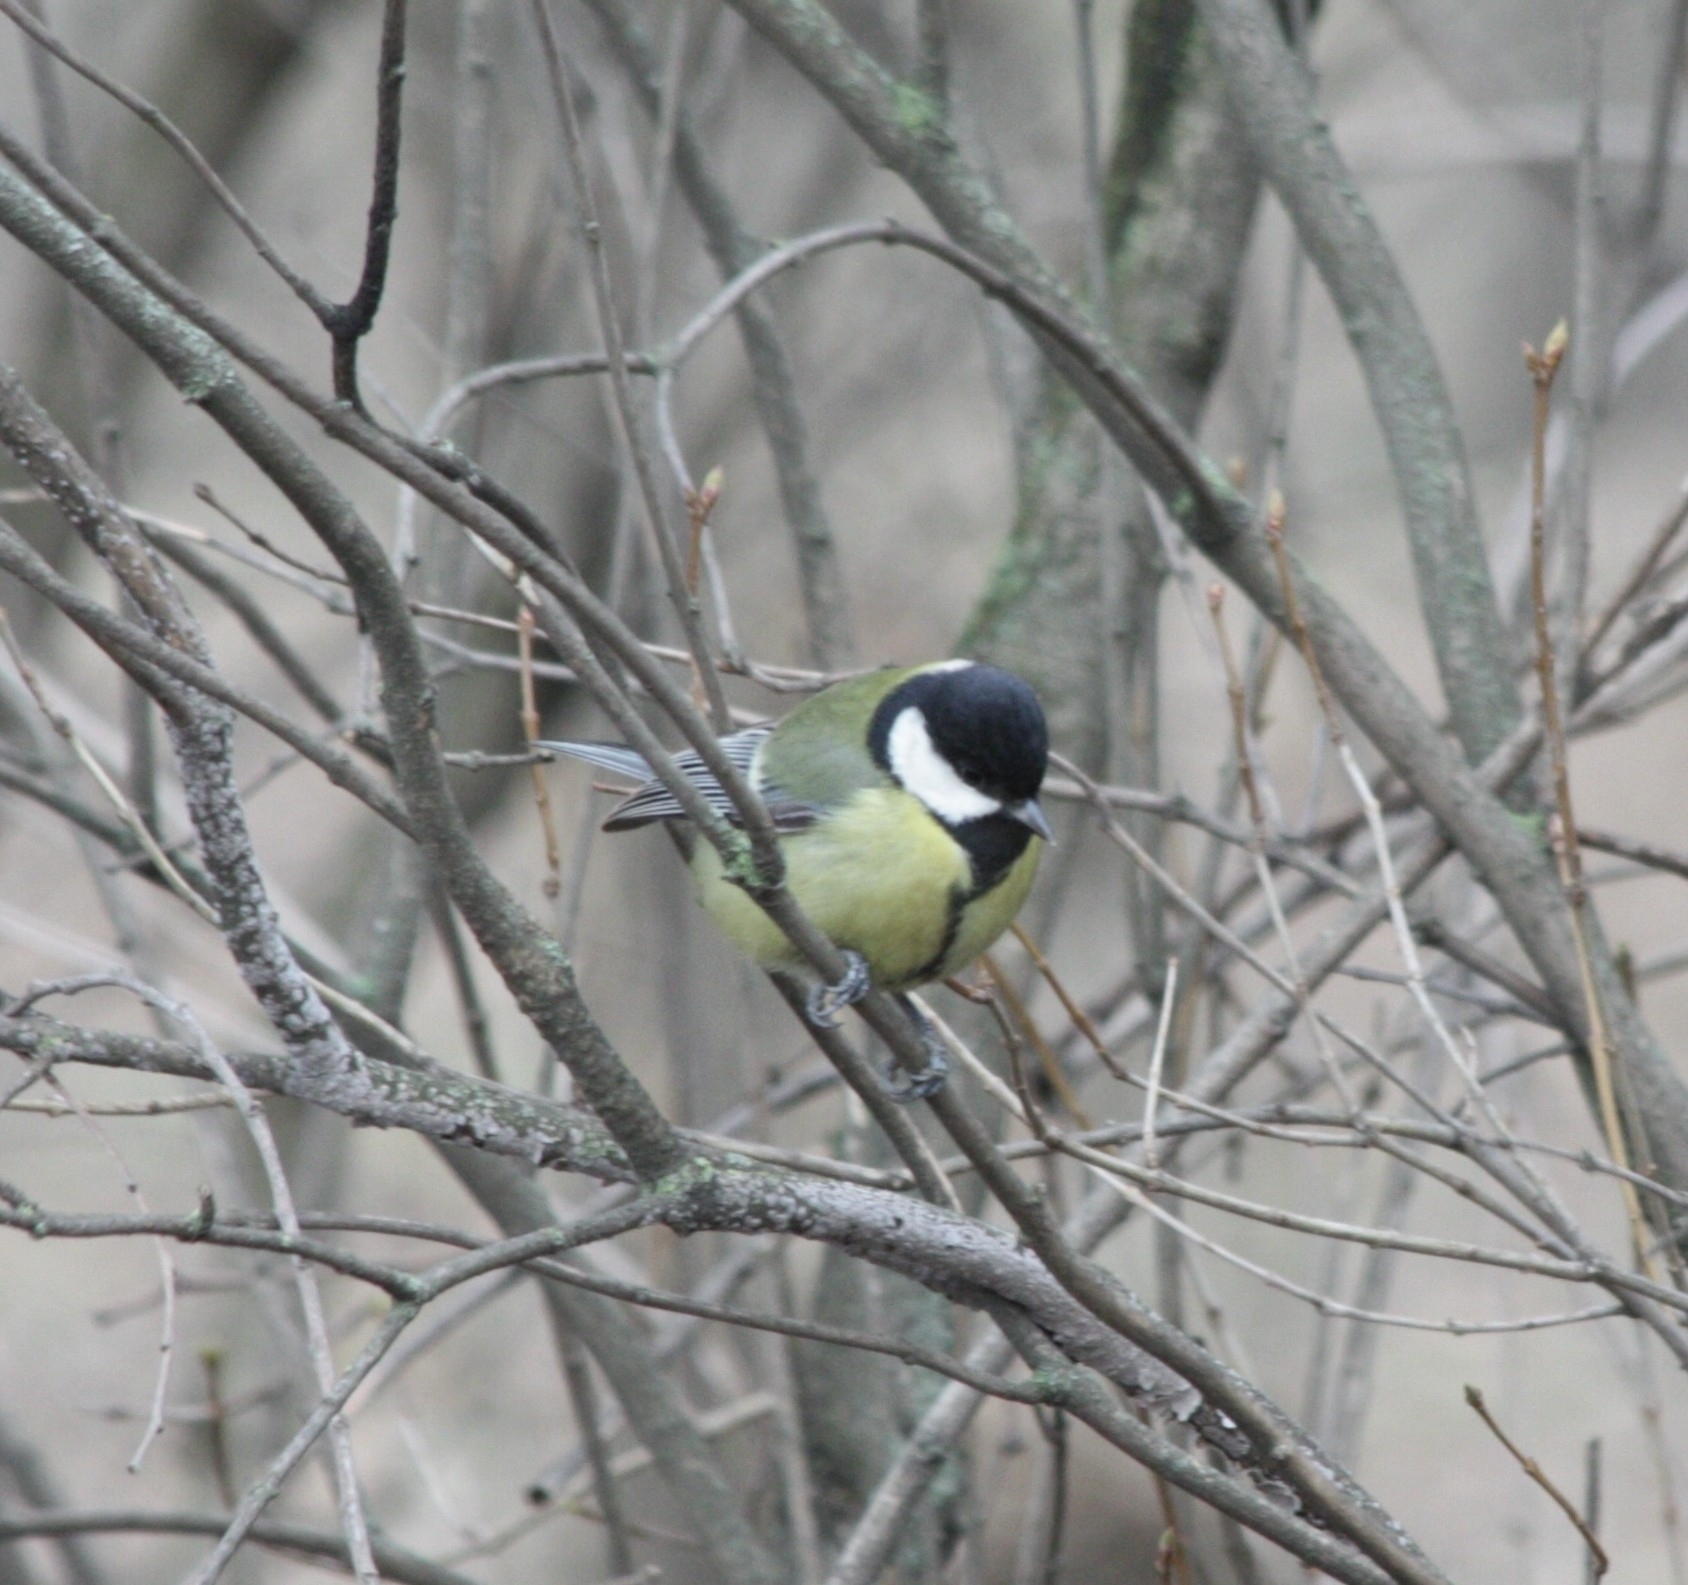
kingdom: Animalia
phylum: Chordata
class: Aves
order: Passeriformes
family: Paridae
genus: Parus
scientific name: Parus major
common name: Great tit
